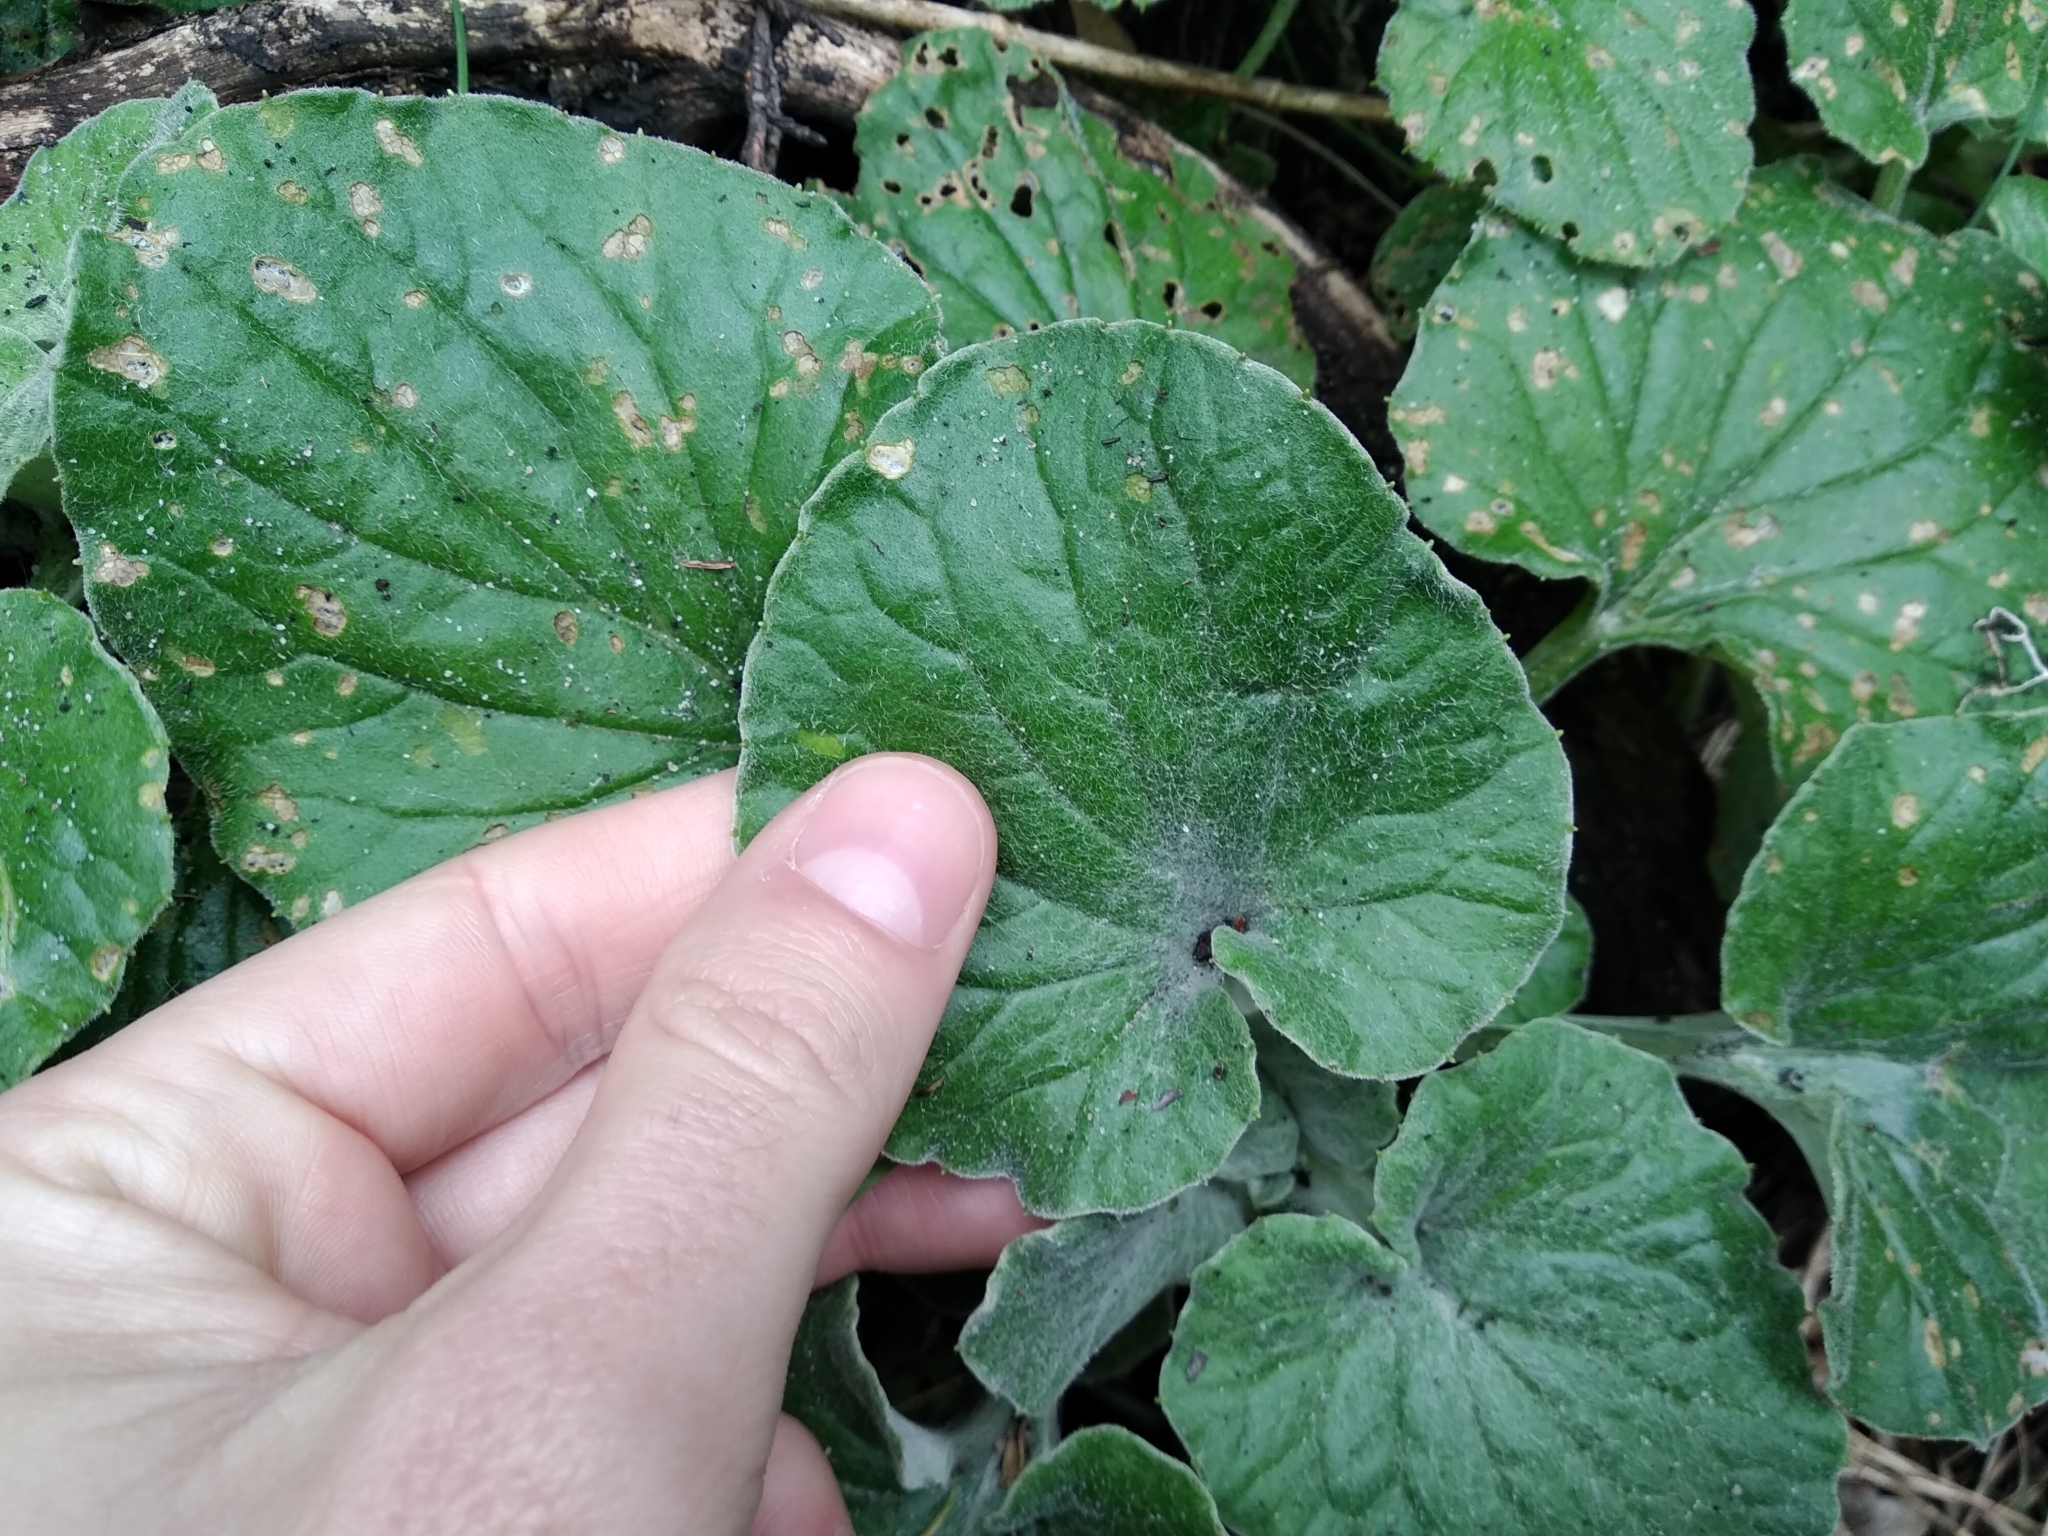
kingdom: Plantae
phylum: Tracheophyta
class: Magnoliopsida
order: Asterales
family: Asteraceae
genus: Senecio
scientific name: Senecio verbascifolius
